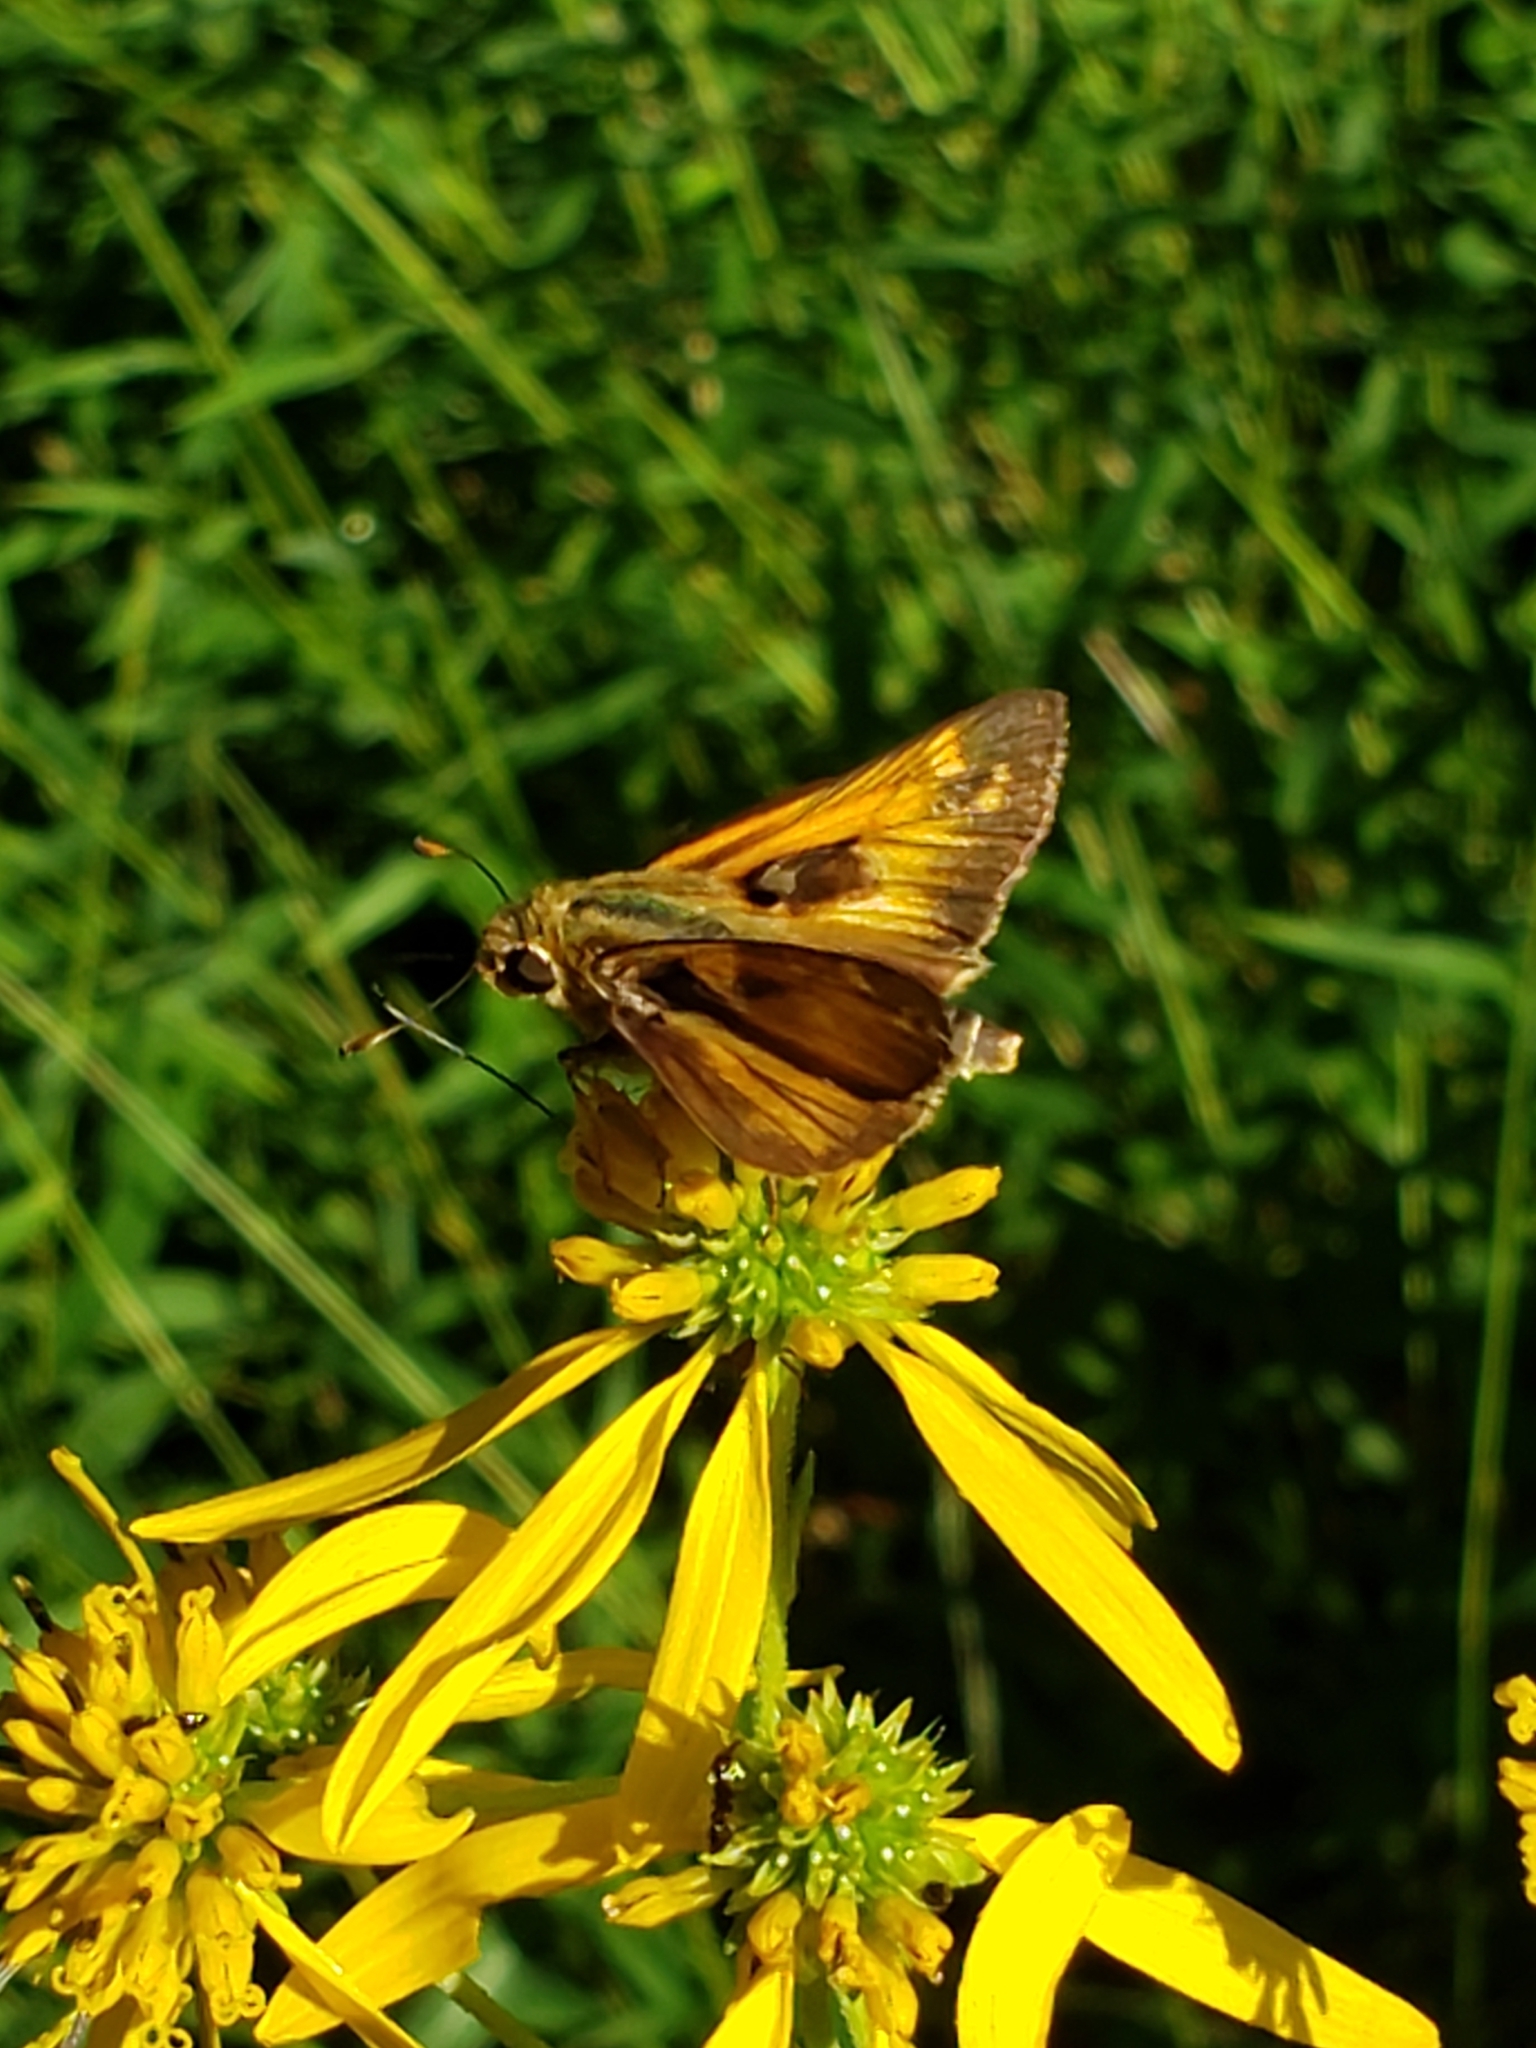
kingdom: Animalia
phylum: Arthropoda
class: Insecta
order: Lepidoptera
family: Hesperiidae
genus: Atalopedes
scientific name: Atalopedes
